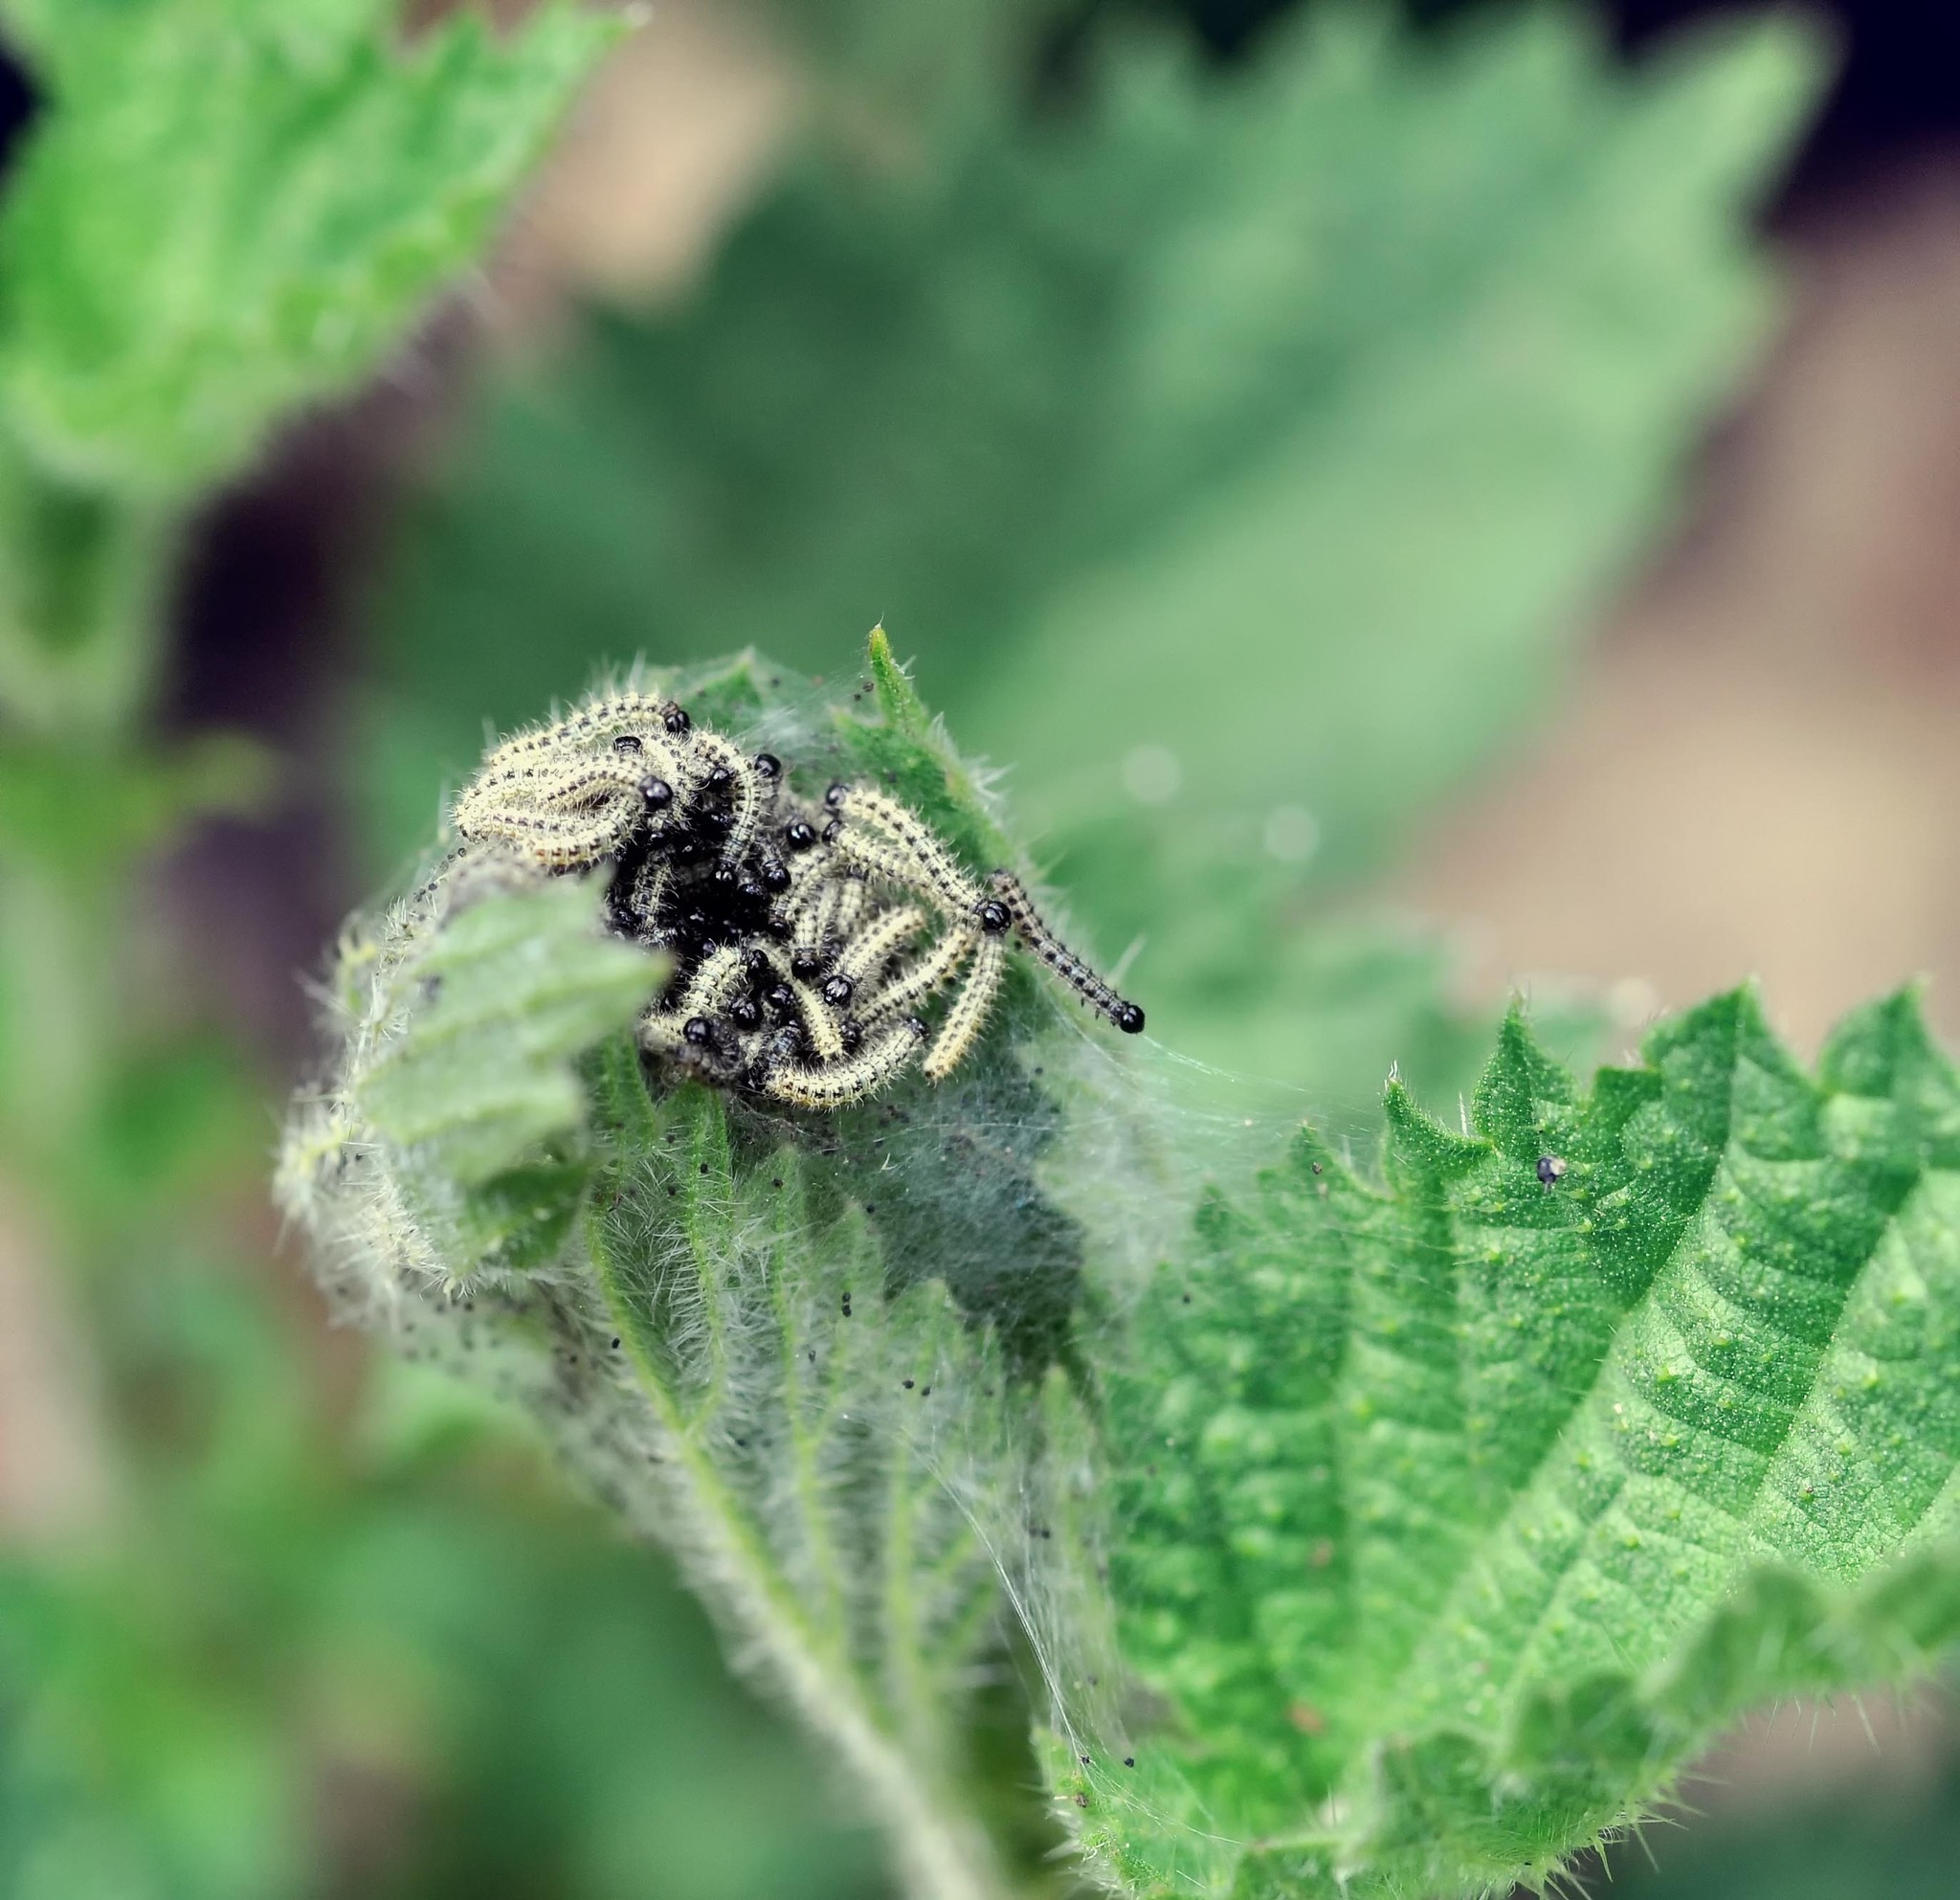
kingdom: Animalia
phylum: Arthropoda
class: Insecta
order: Lepidoptera
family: Nymphalidae
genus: Aglais
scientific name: Aglais urticae
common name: Small tortoiseshell
